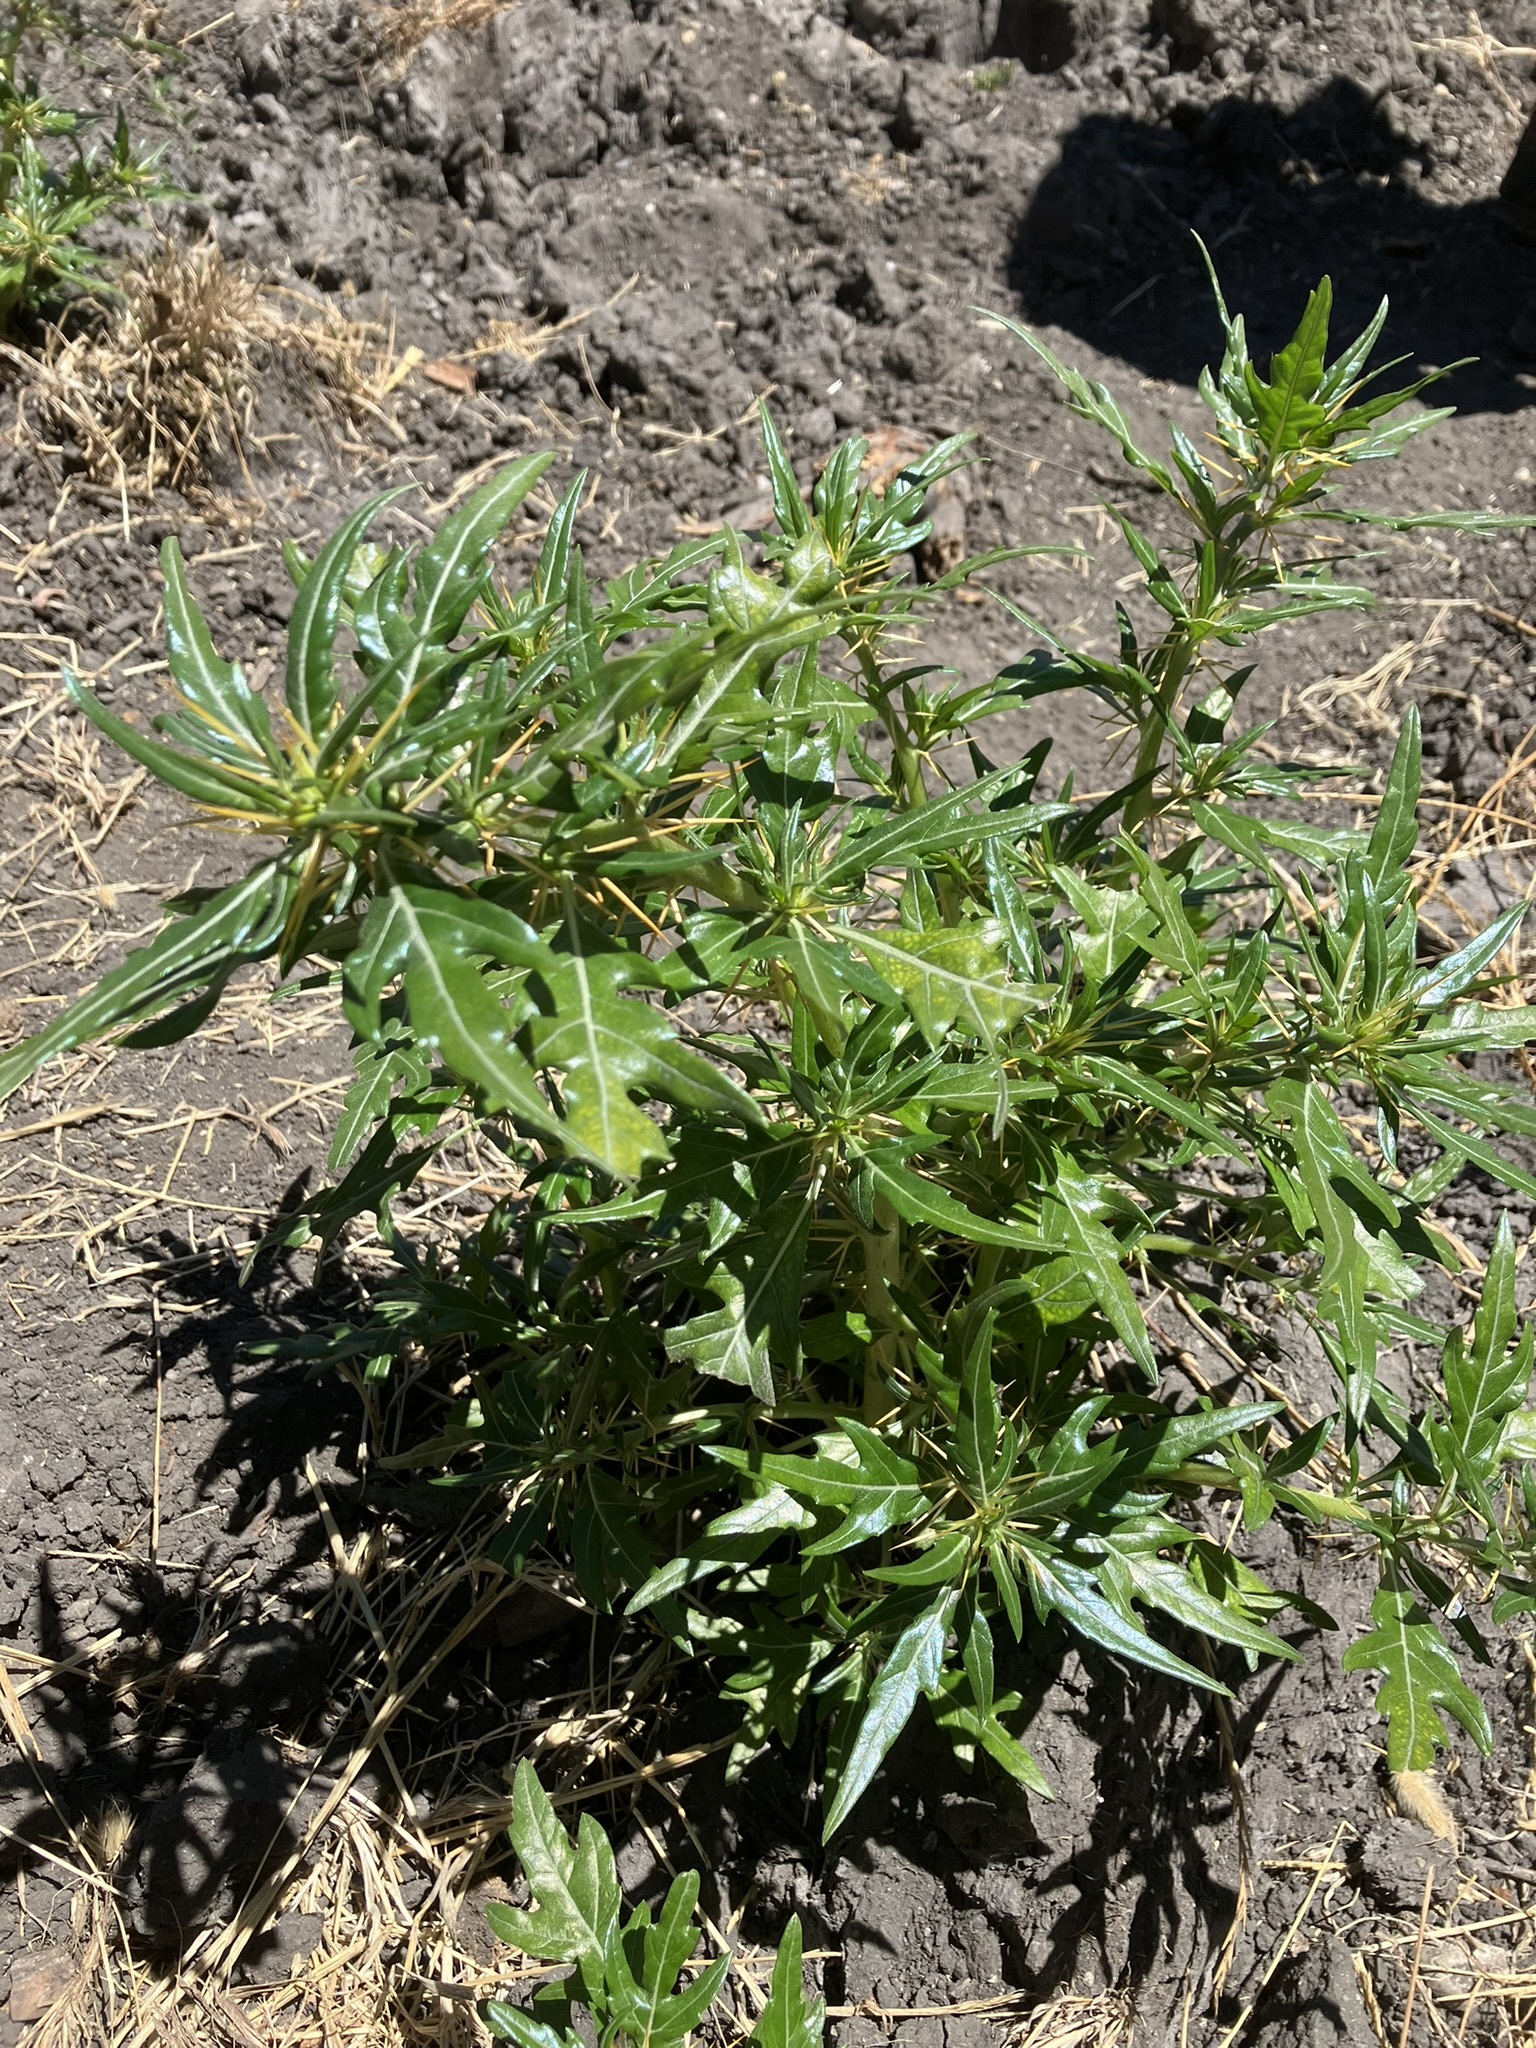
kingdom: Plantae
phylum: Tracheophyta
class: Magnoliopsida
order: Asterales
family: Asteraceae
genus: Xanthium
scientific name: Xanthium spinosum
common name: Spiny cocklebur
